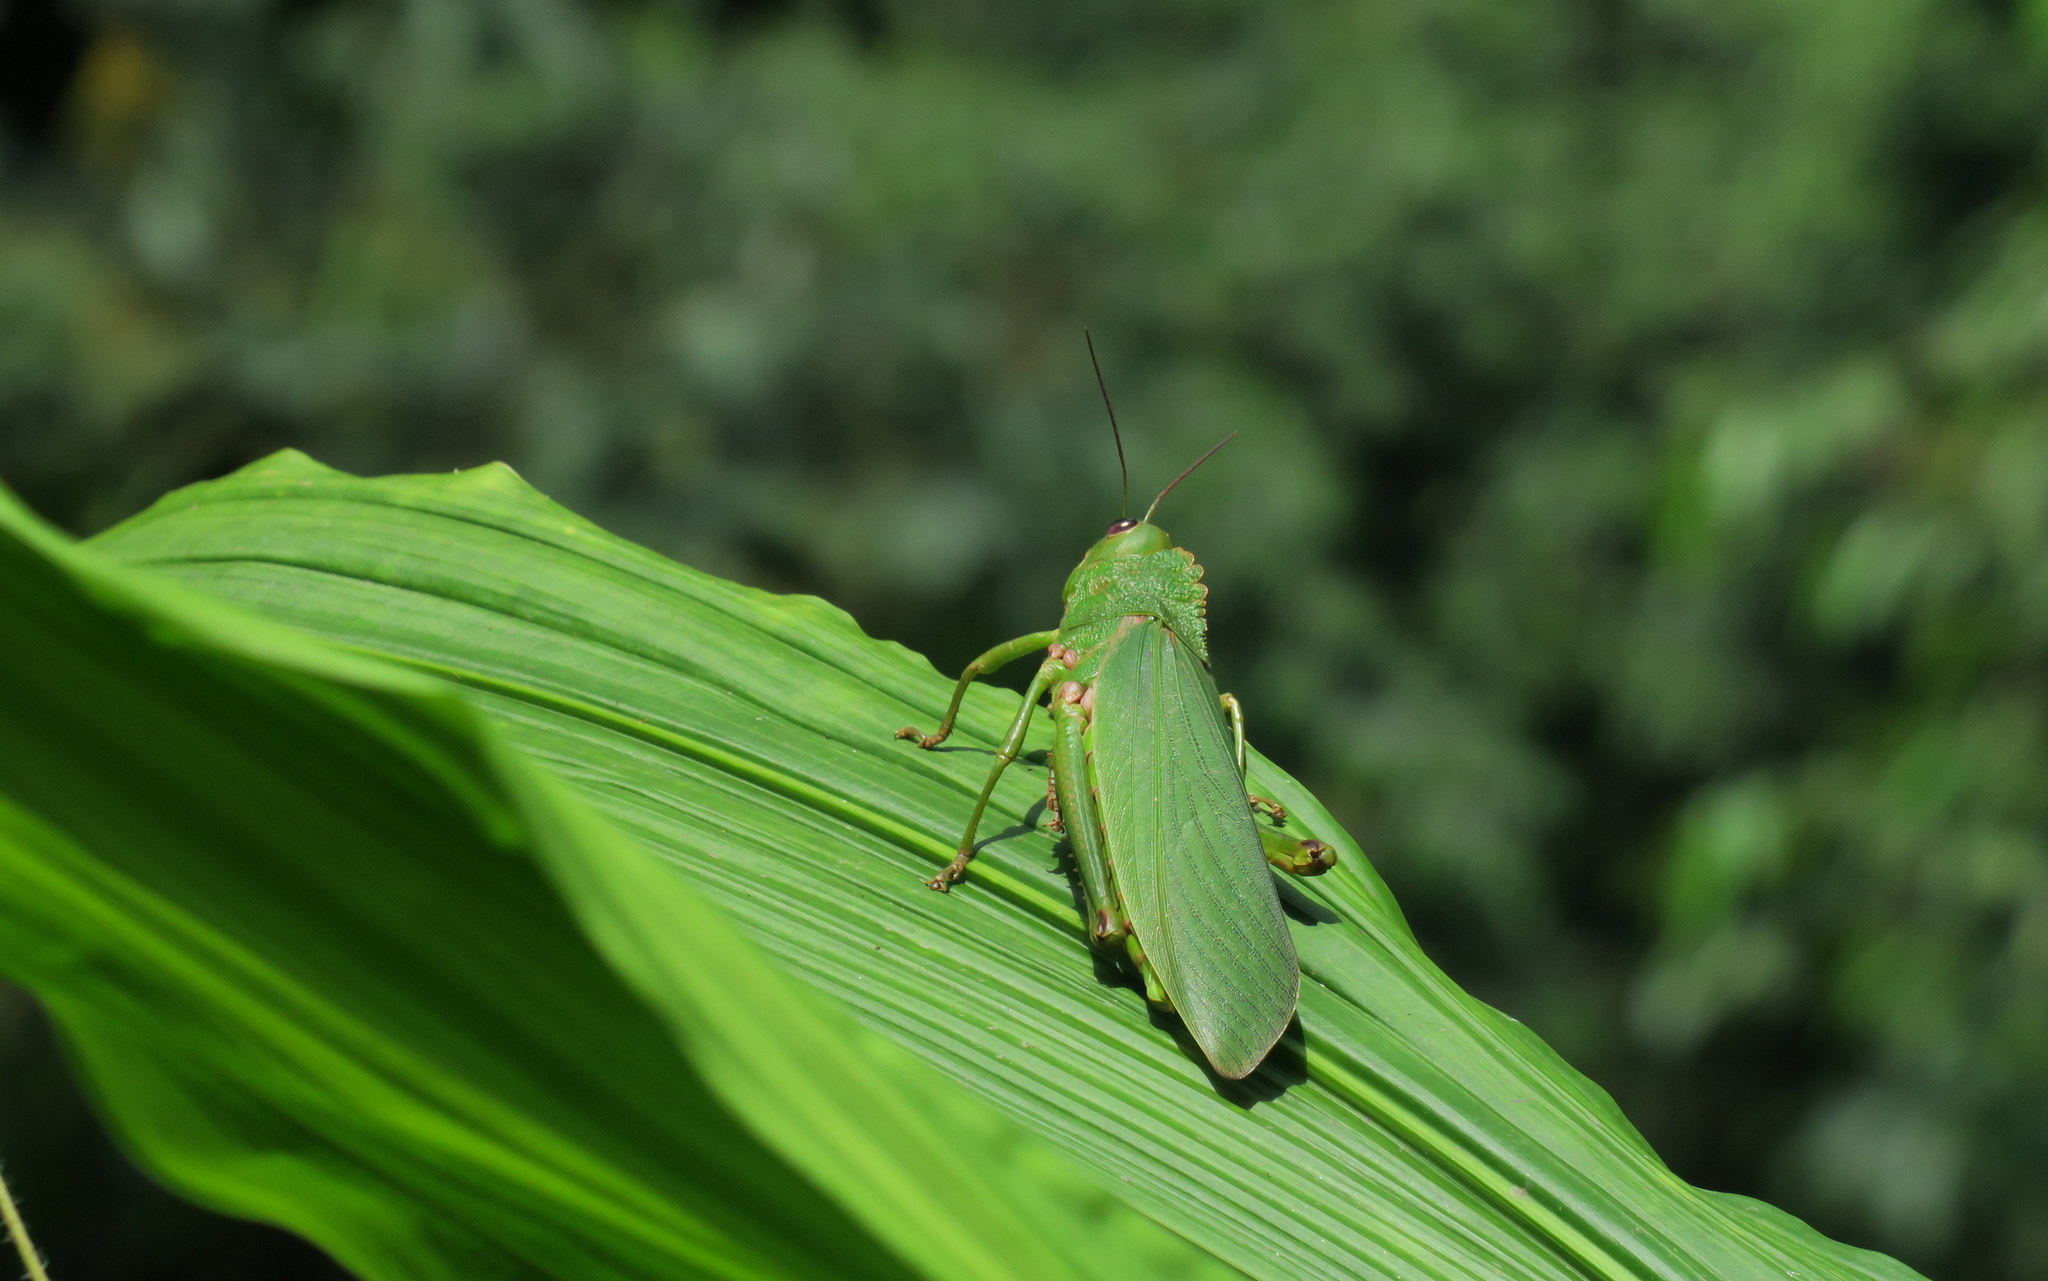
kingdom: Animalia
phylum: Arthropoda
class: Insecta
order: Orthoptera
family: Romaleidae
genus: Titanacris
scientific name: Titanacris humboldtii
